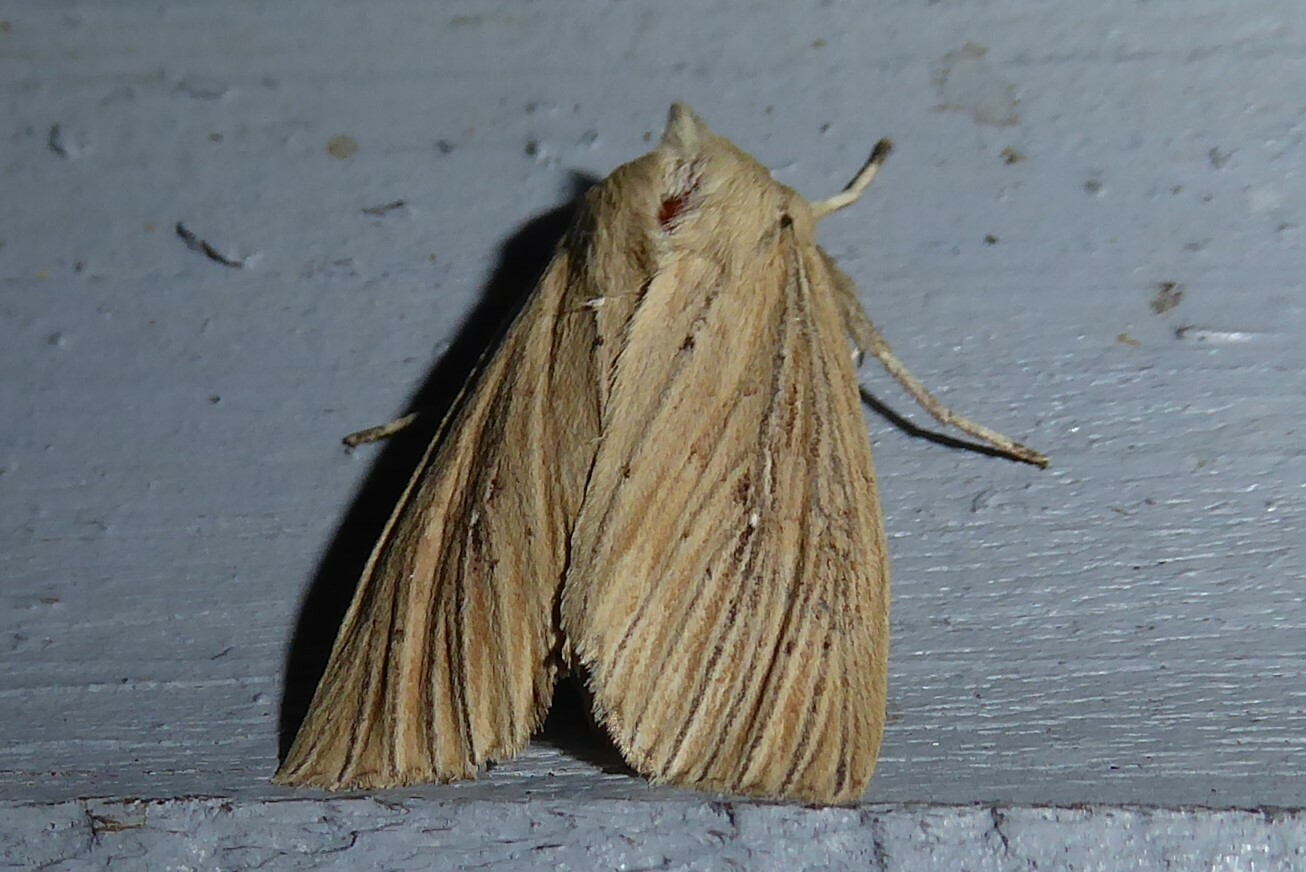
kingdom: Animalia
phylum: Arthropoda
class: Insecta
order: Lepidoptera
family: Noctuidae
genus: Ichneutica
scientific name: Ichneutica arotis
